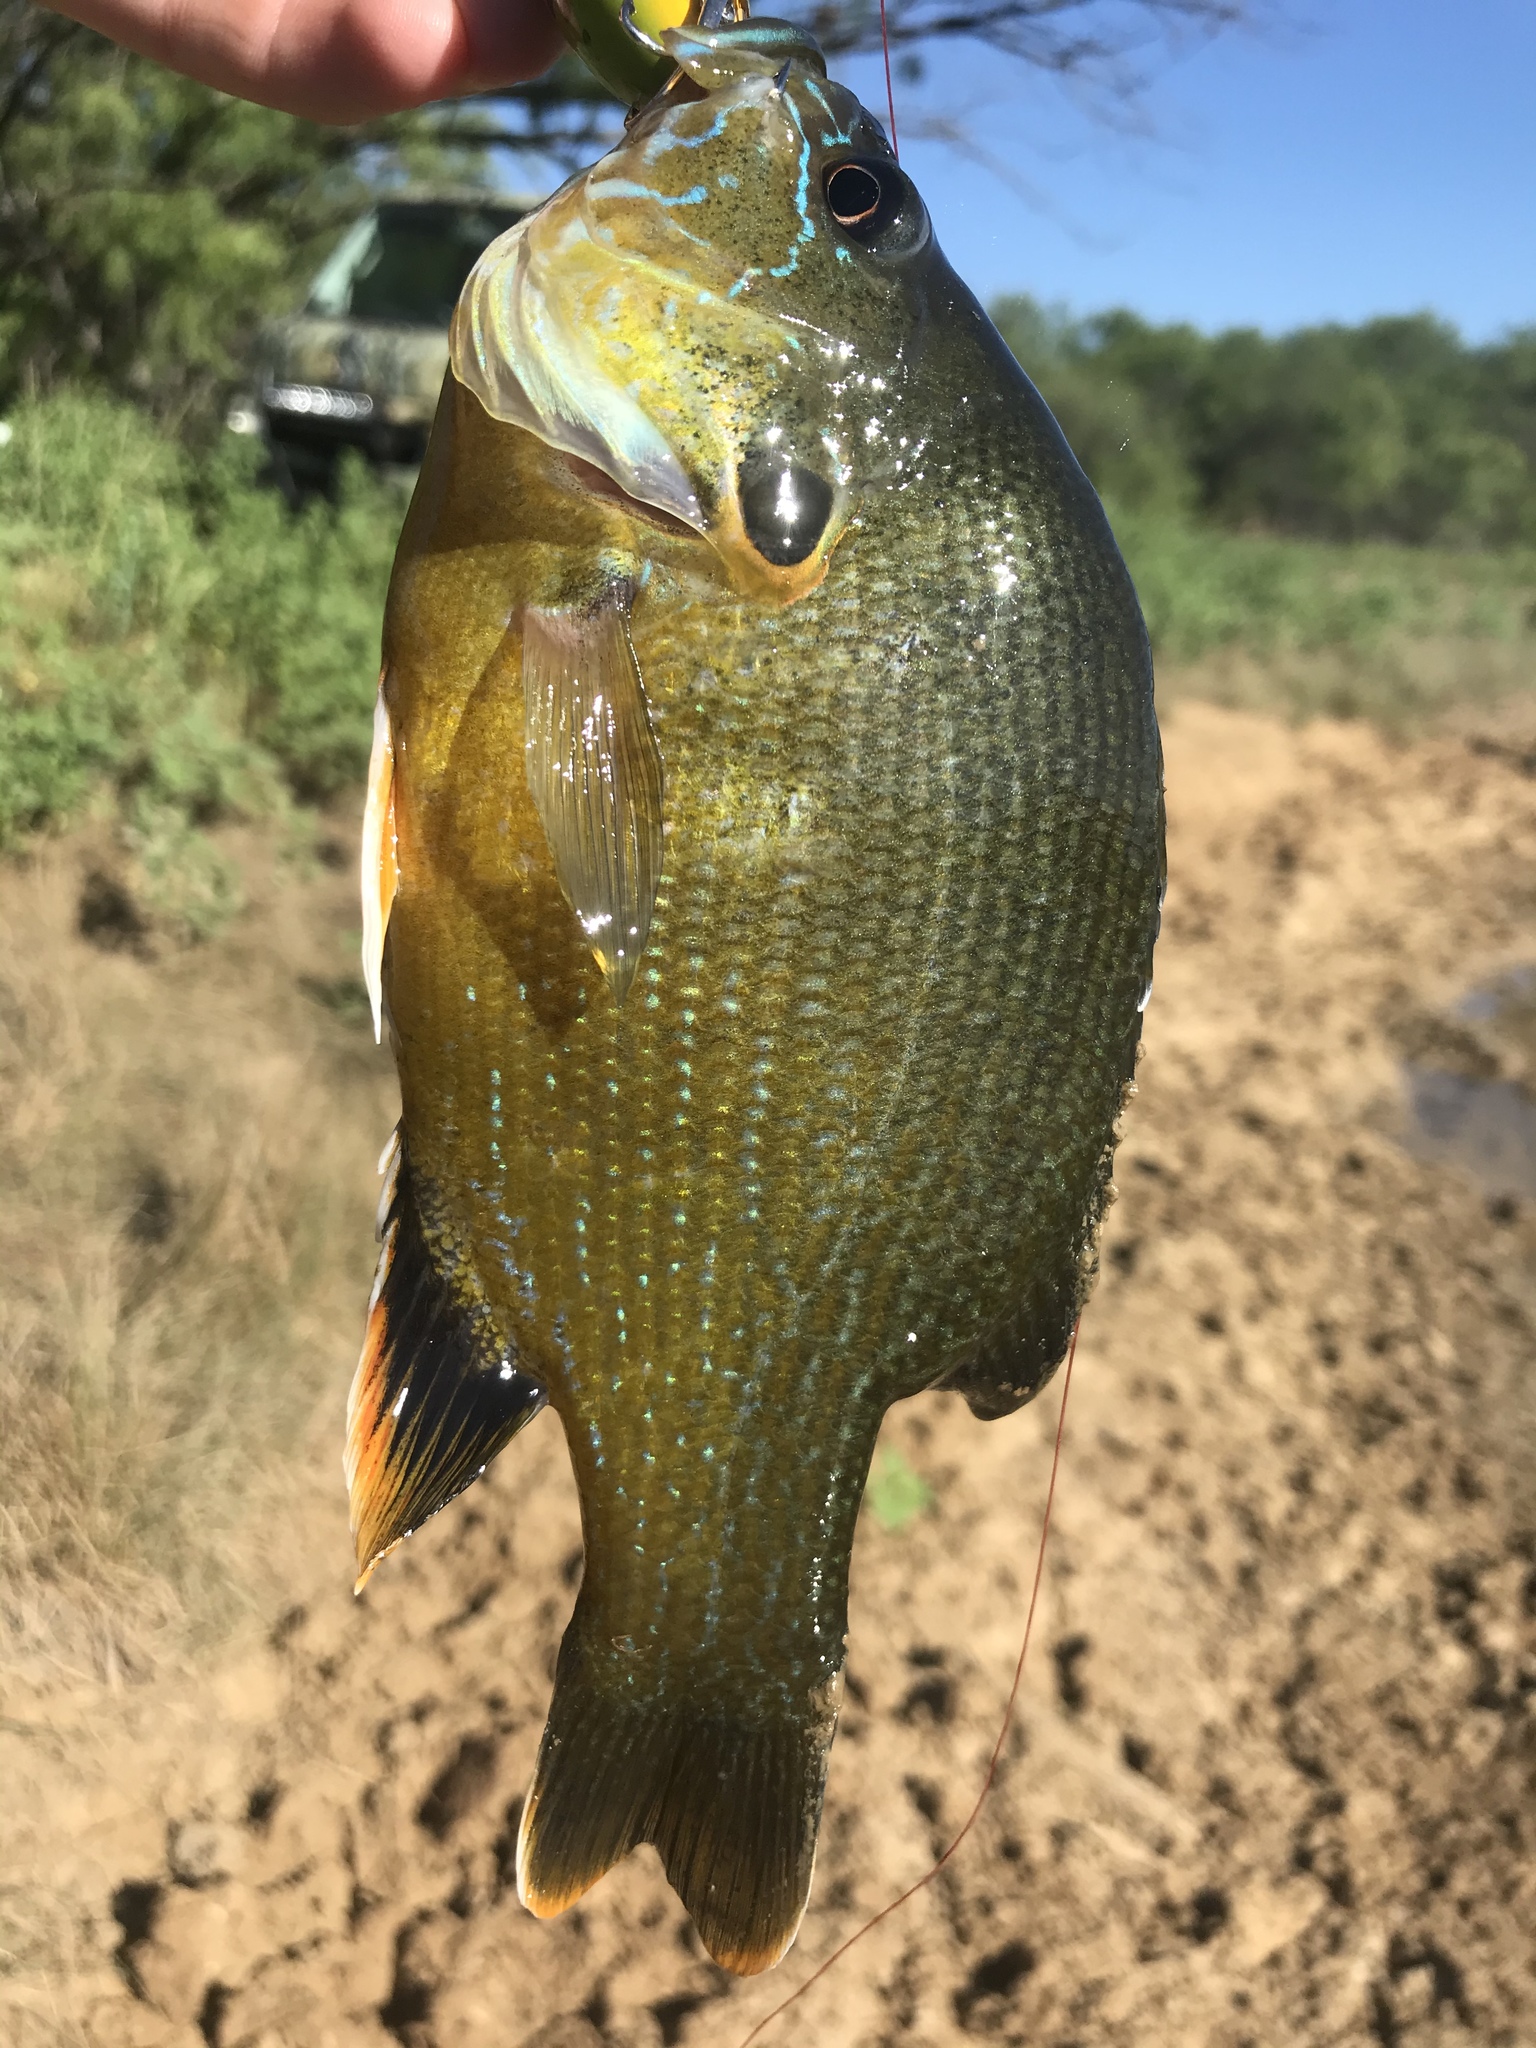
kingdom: Animalia
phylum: Chordata
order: Perciformes
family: Centrarchidae
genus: Lepomis
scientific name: Lepomis cyanellus
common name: Green sunfish
